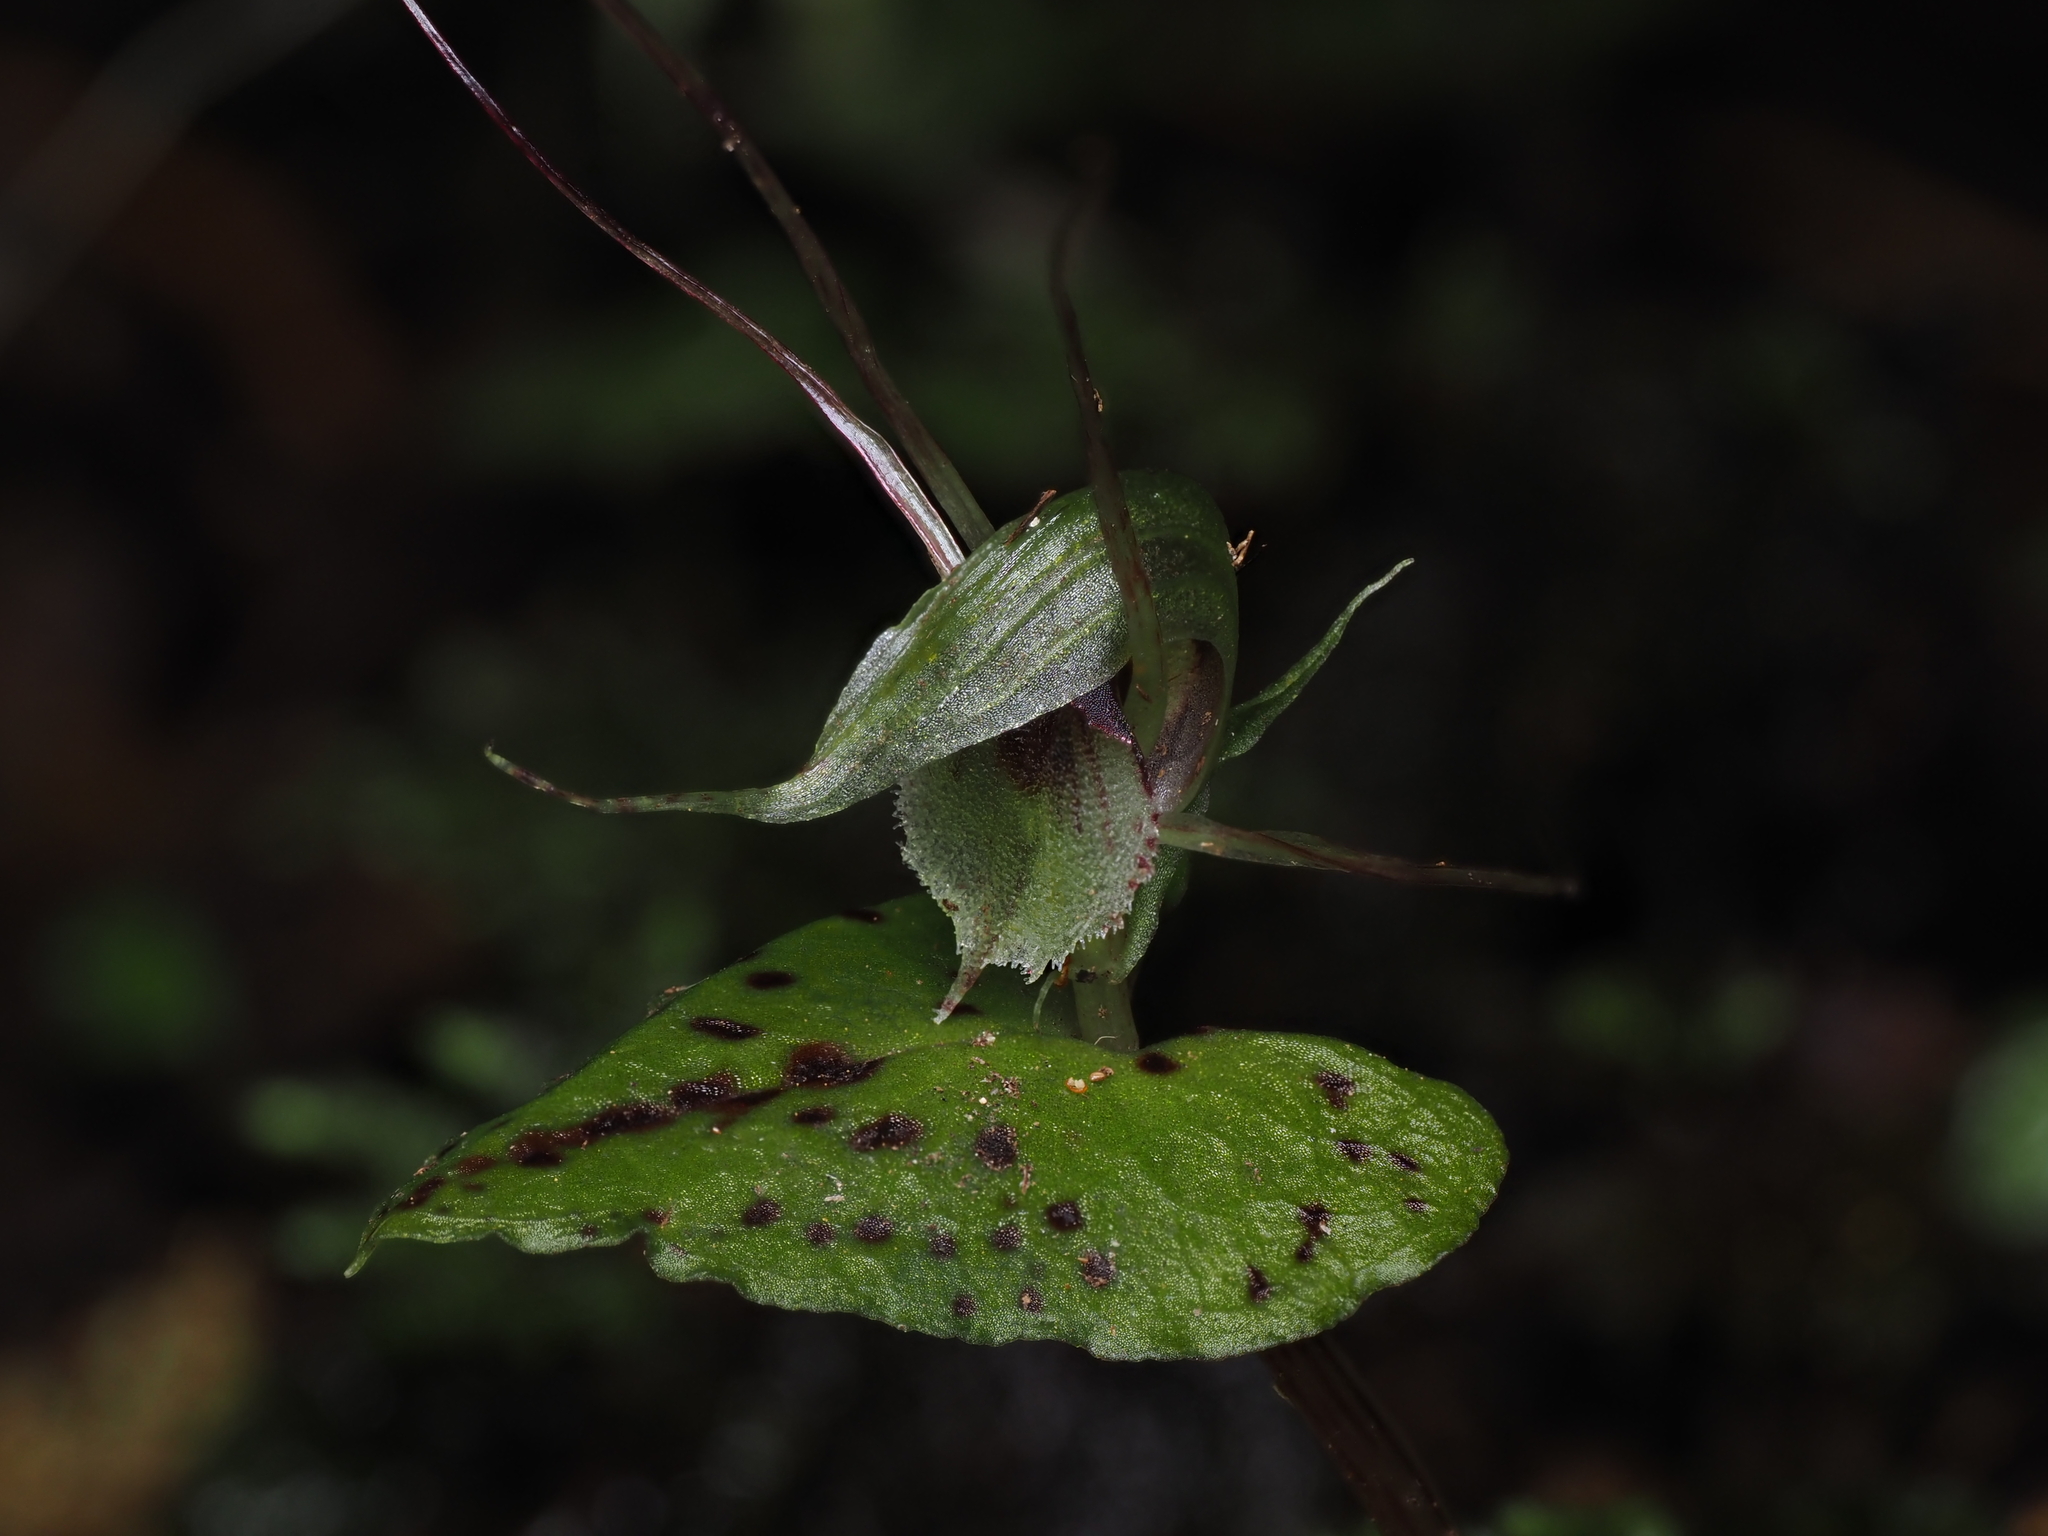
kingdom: Plantae
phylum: Tracheophyta
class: Liliopsida
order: Asparagales
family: Orchidaceae
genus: Corybas
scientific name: Corybas acuminatus
